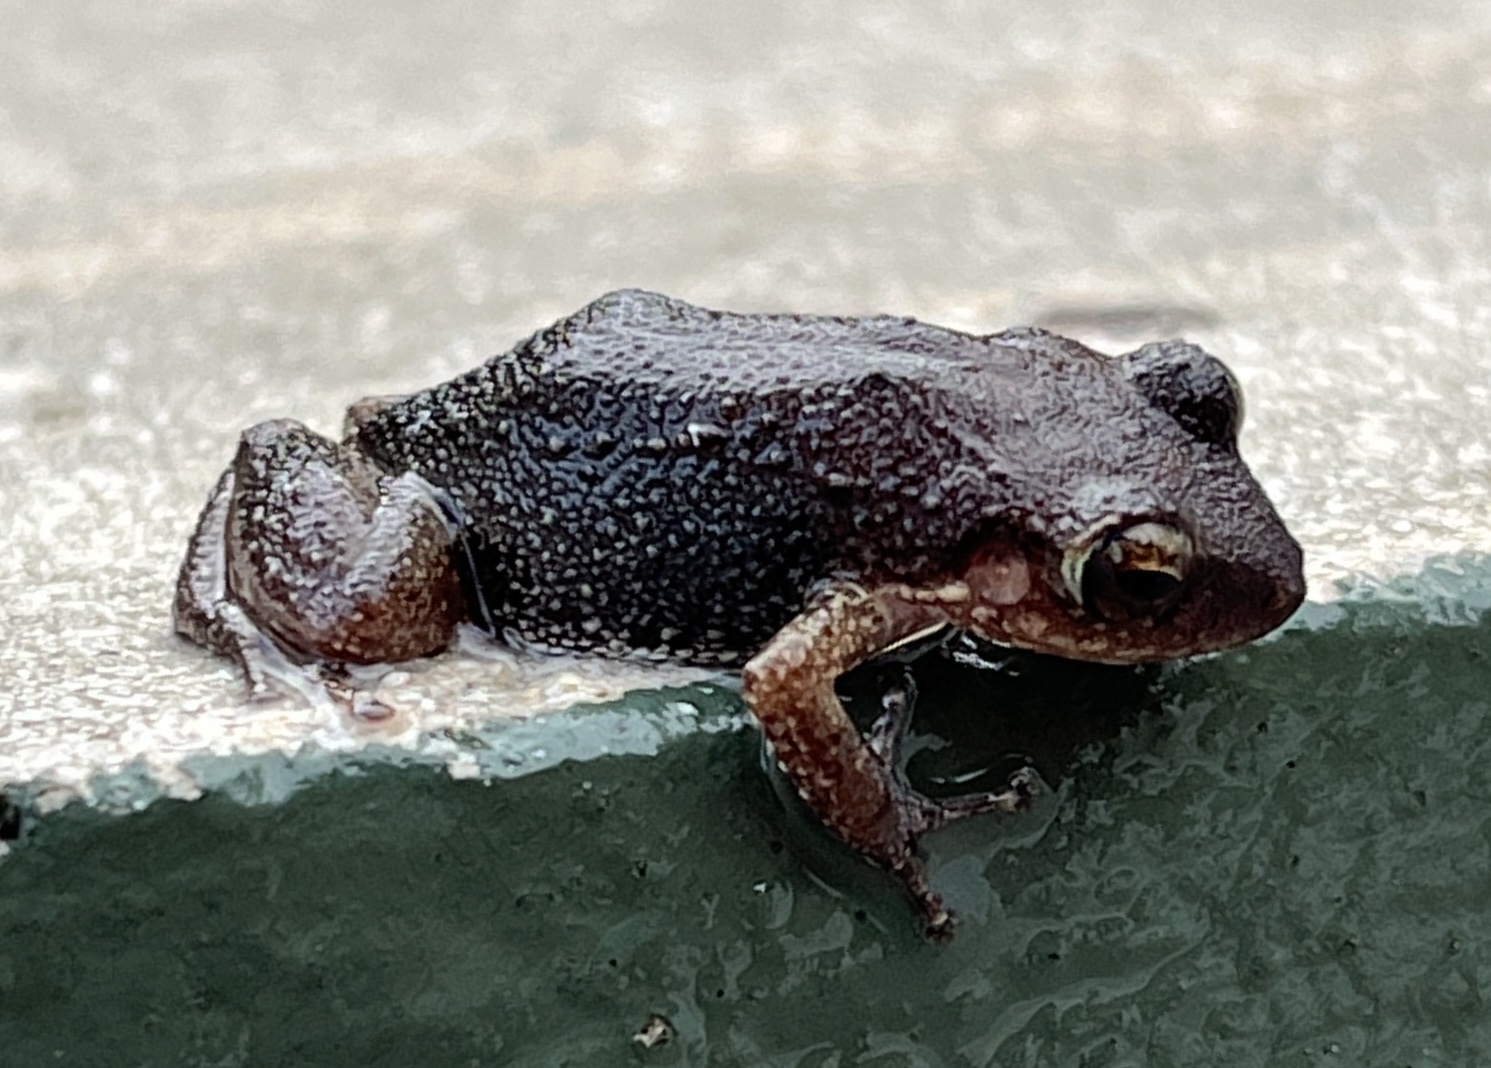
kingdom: Animalia
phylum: Chordata
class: Amphibia
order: Anura
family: Eleutherodactylidae
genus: Eleutherodactylus
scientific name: Eleutherodactylus montserratae
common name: Montserrat whistling frog
